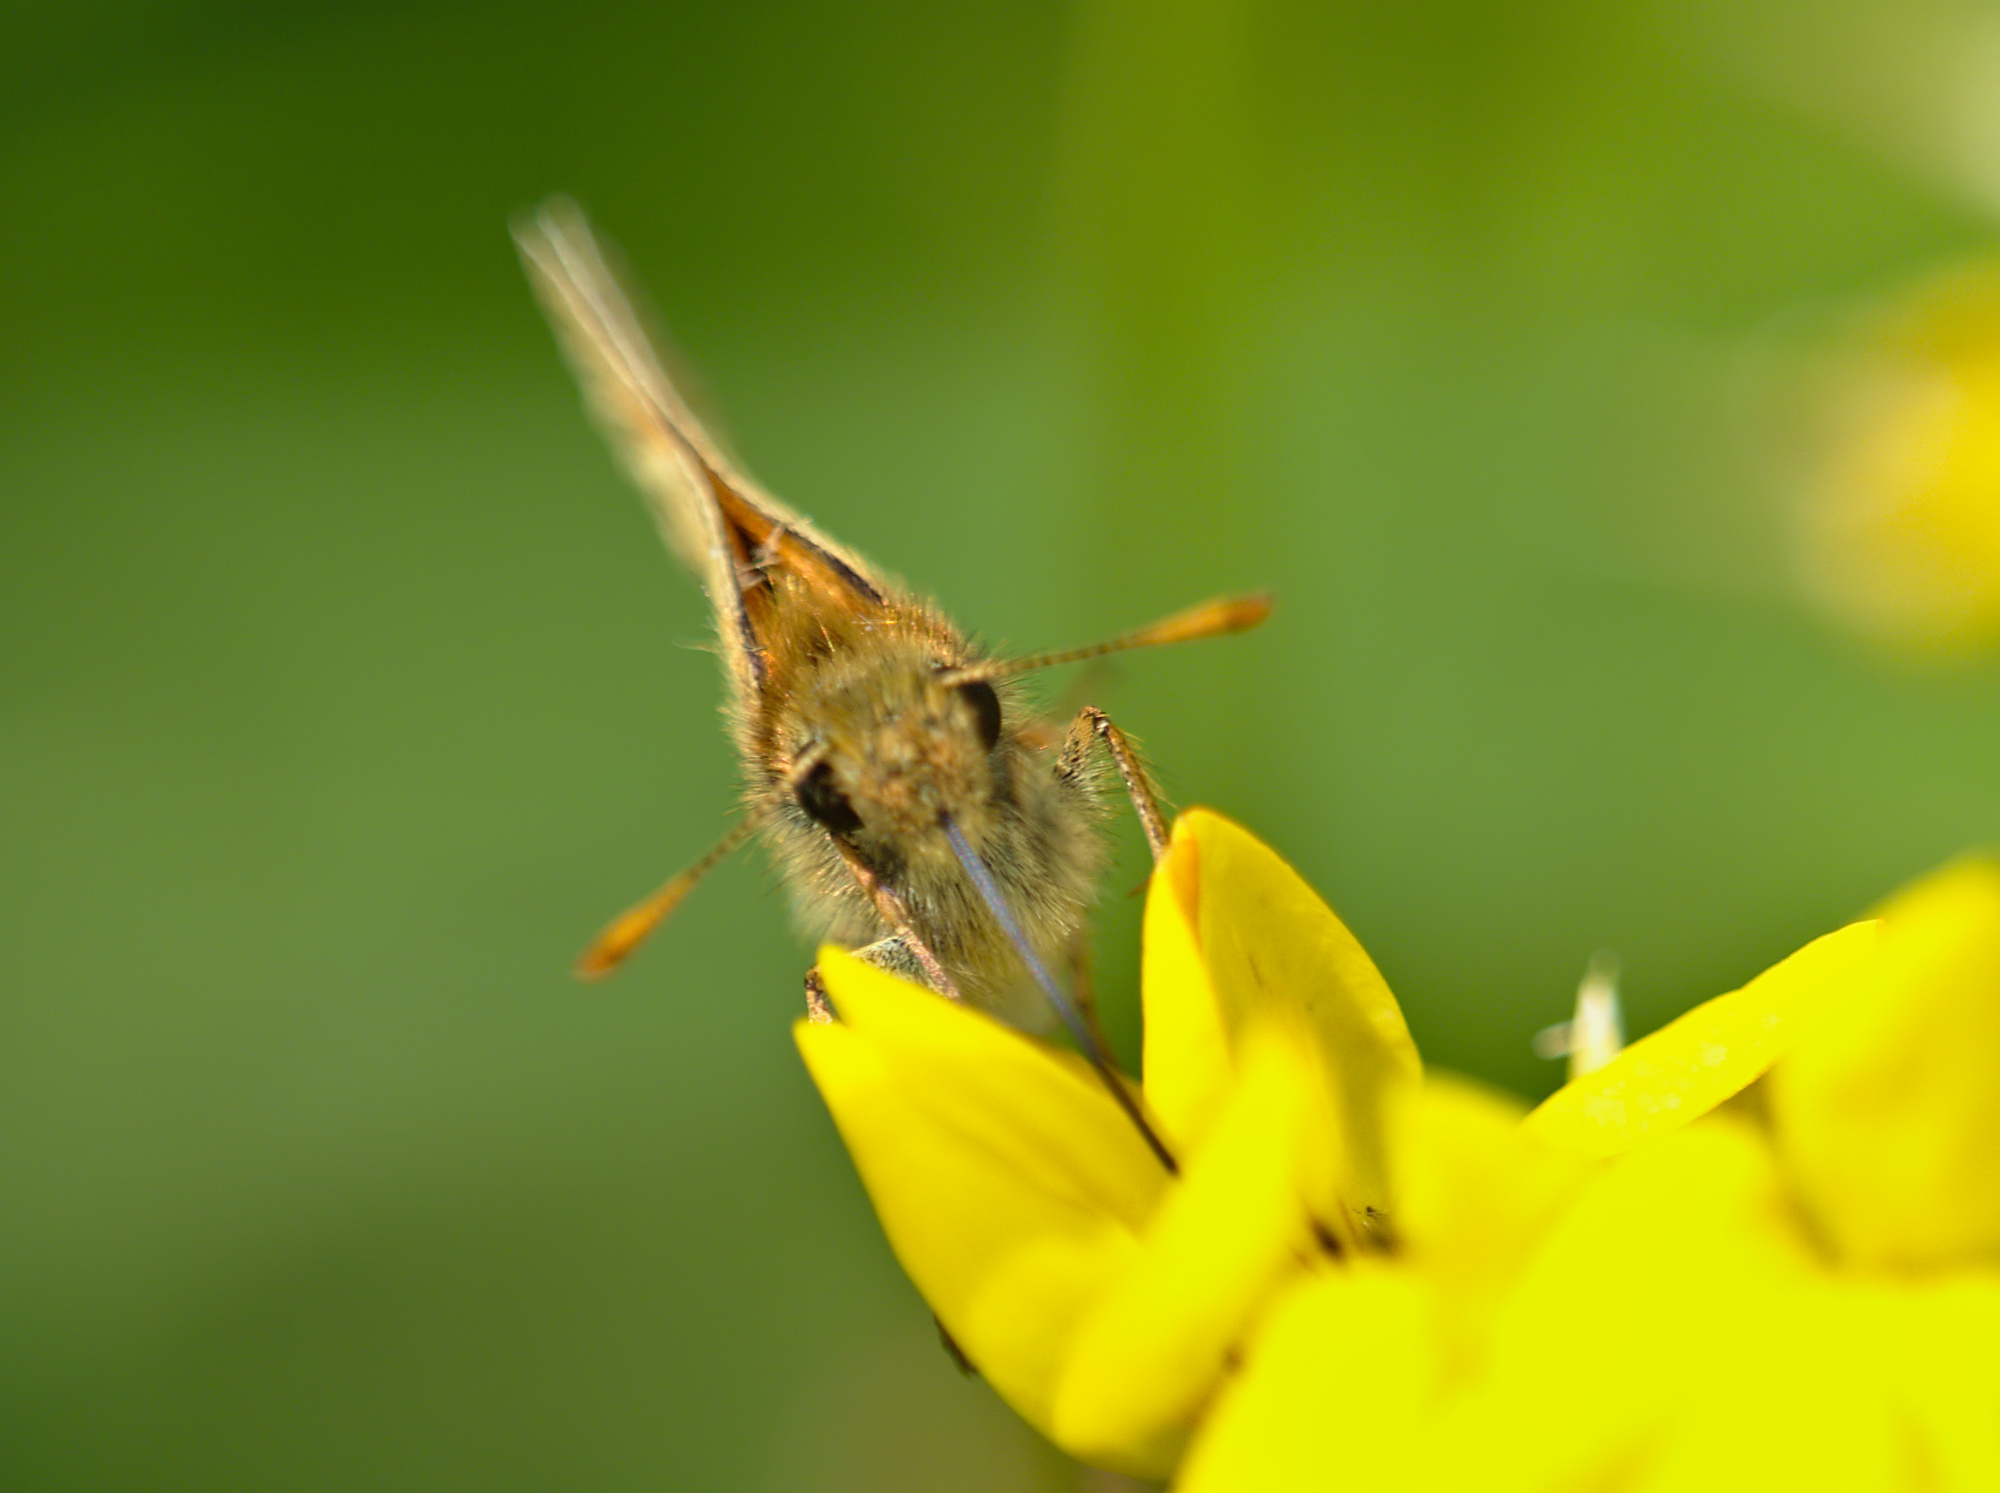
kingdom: Animalia
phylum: Arthropoda
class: Insecta
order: Lepidoptera
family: Hesperiidae
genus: Thymelicus
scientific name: Thymelicus sylvestris
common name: Small skipper
